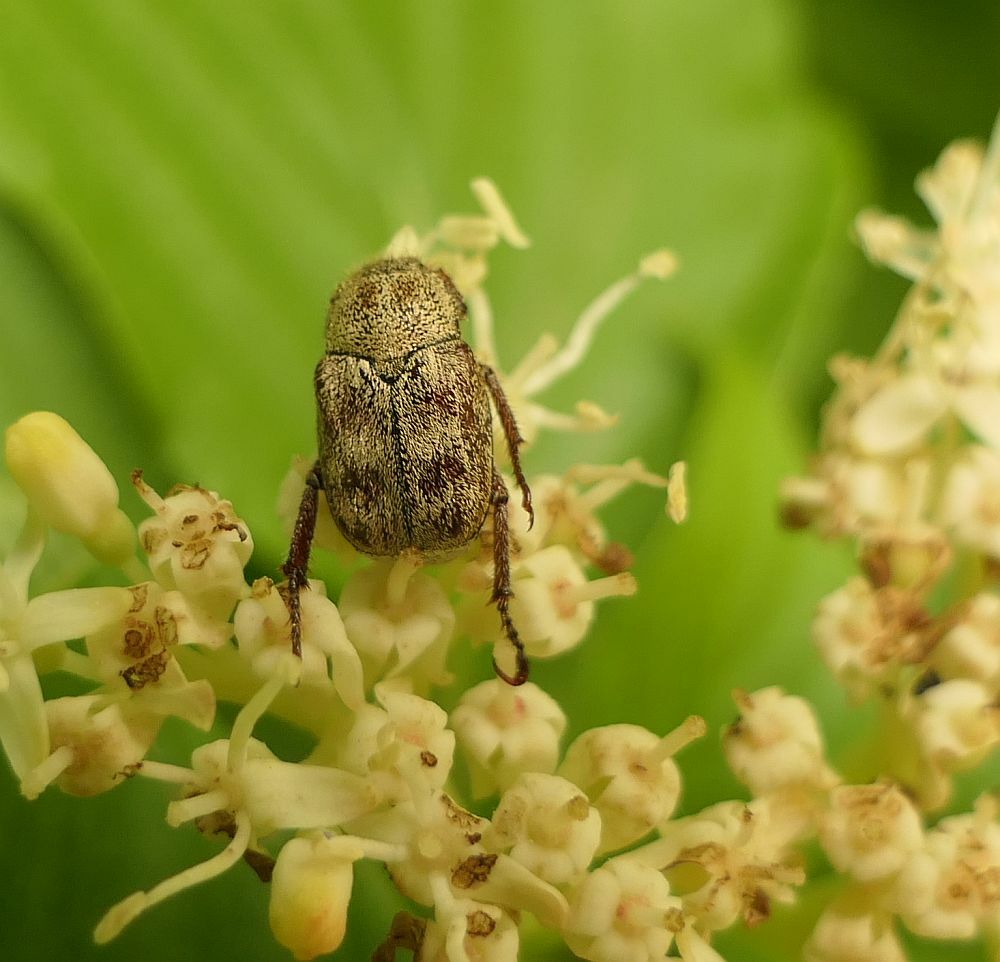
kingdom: Animalia
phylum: Arthropoda
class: Insecta
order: Coleoptera
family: Scarabaeidae
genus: Hoplia
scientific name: Hoplia trifasciata
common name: Three-lined hoplia
